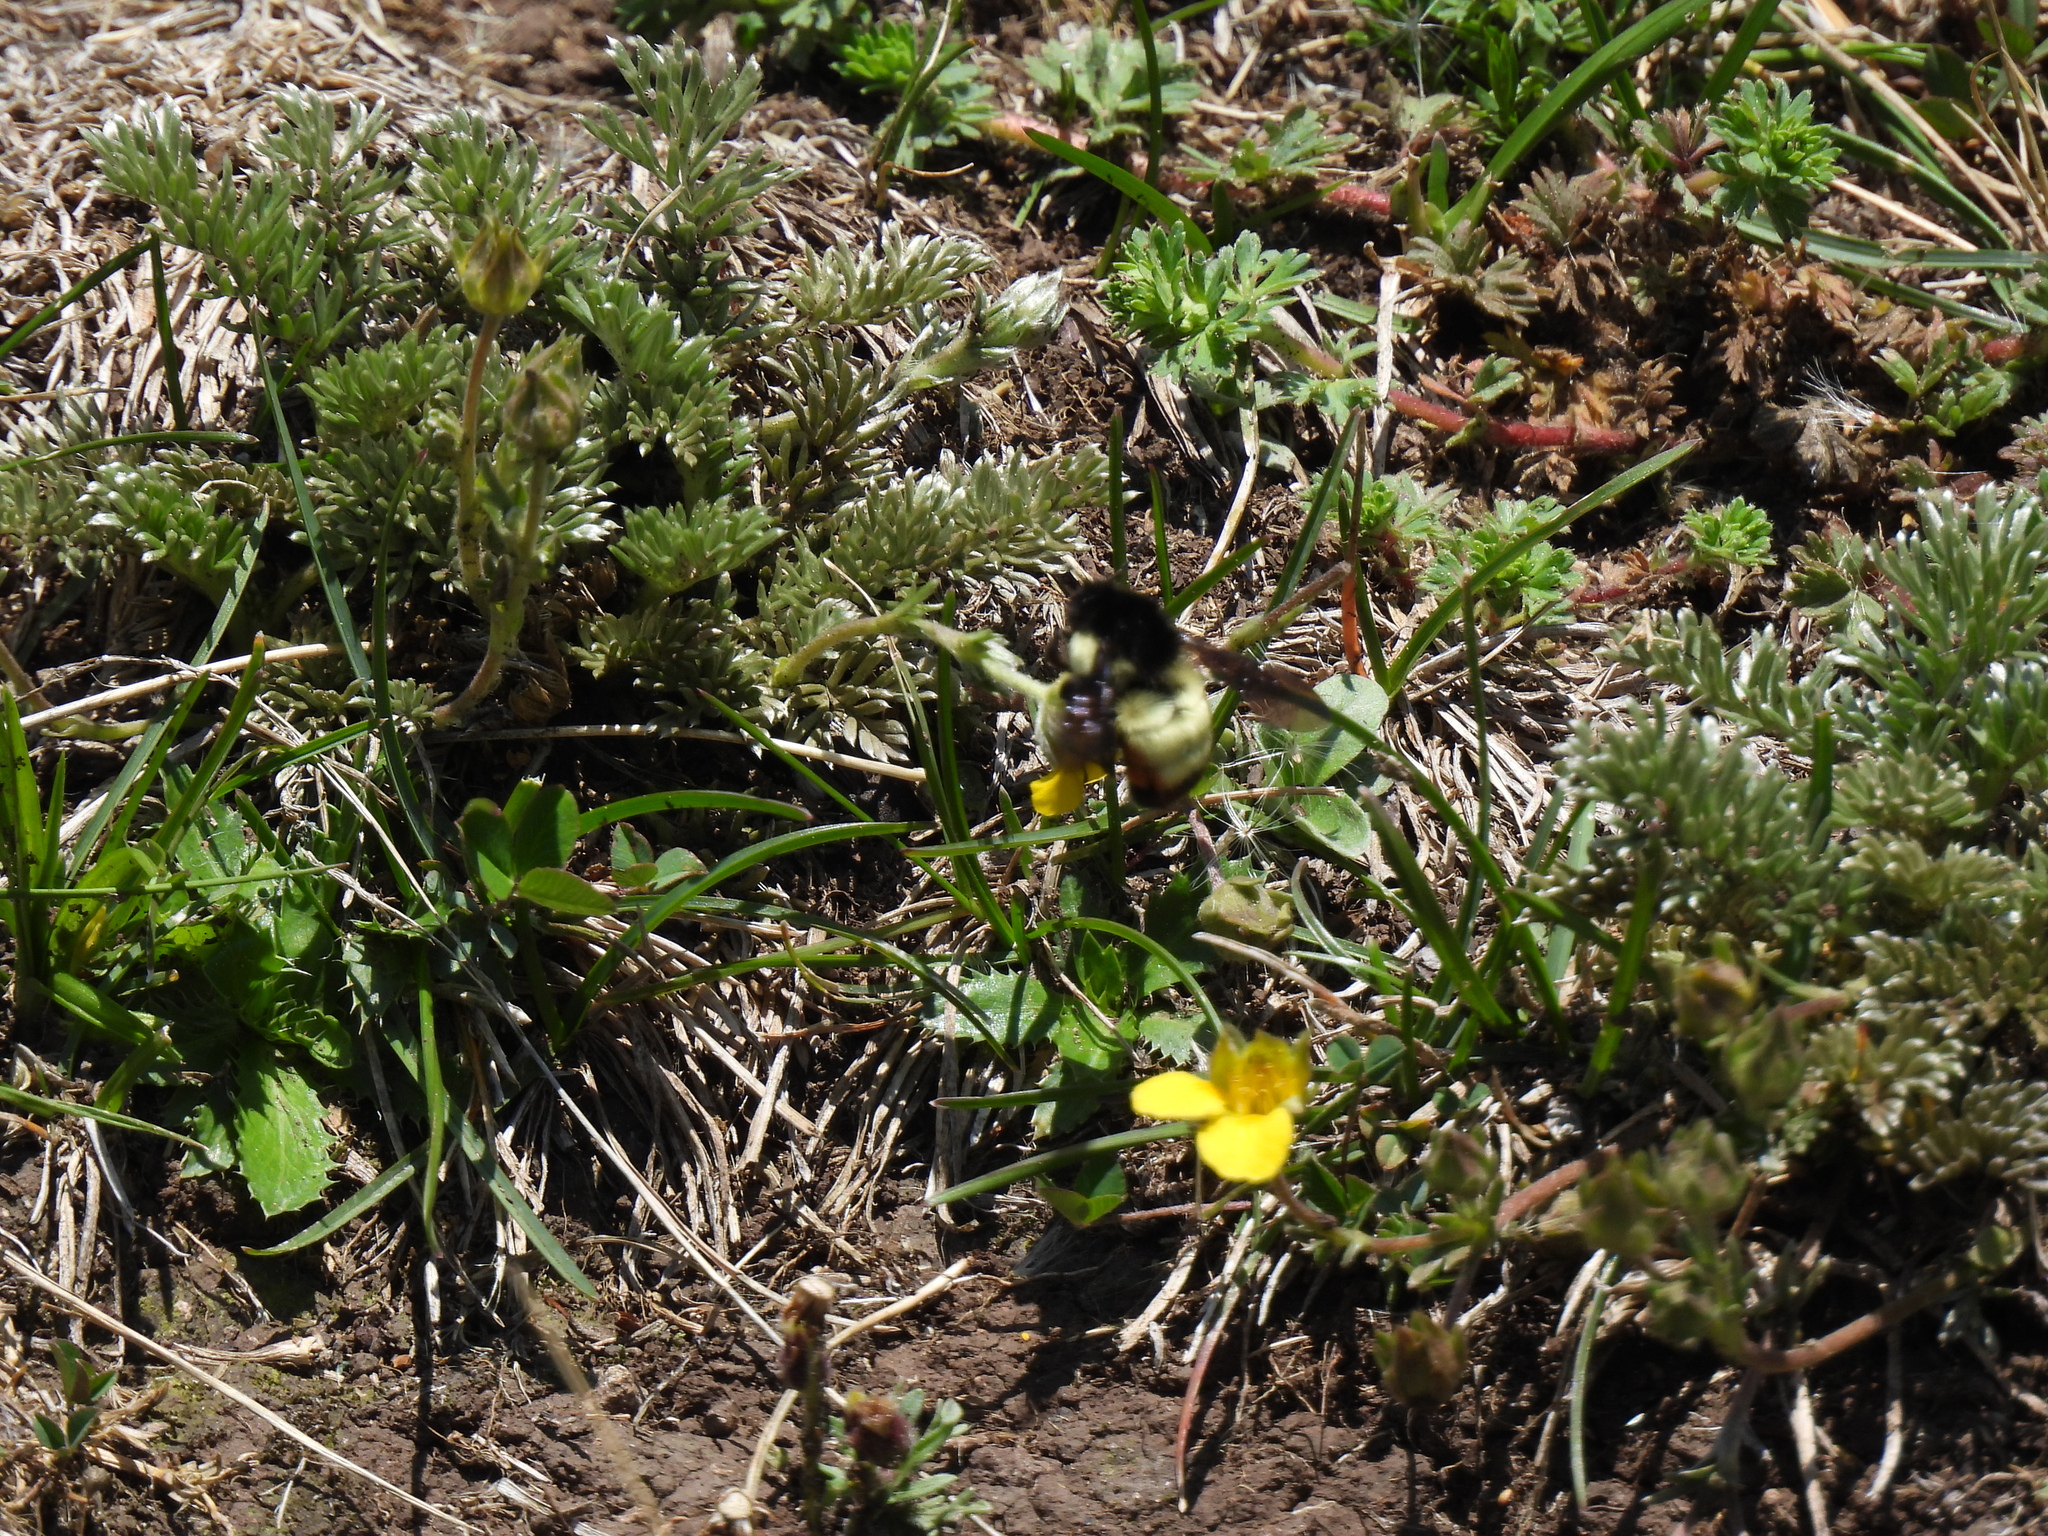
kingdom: Animalia
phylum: Arthropoda
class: Insecta
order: Hymenoptera
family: Apidae
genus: Bombus
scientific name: Bombus ephippiatus
